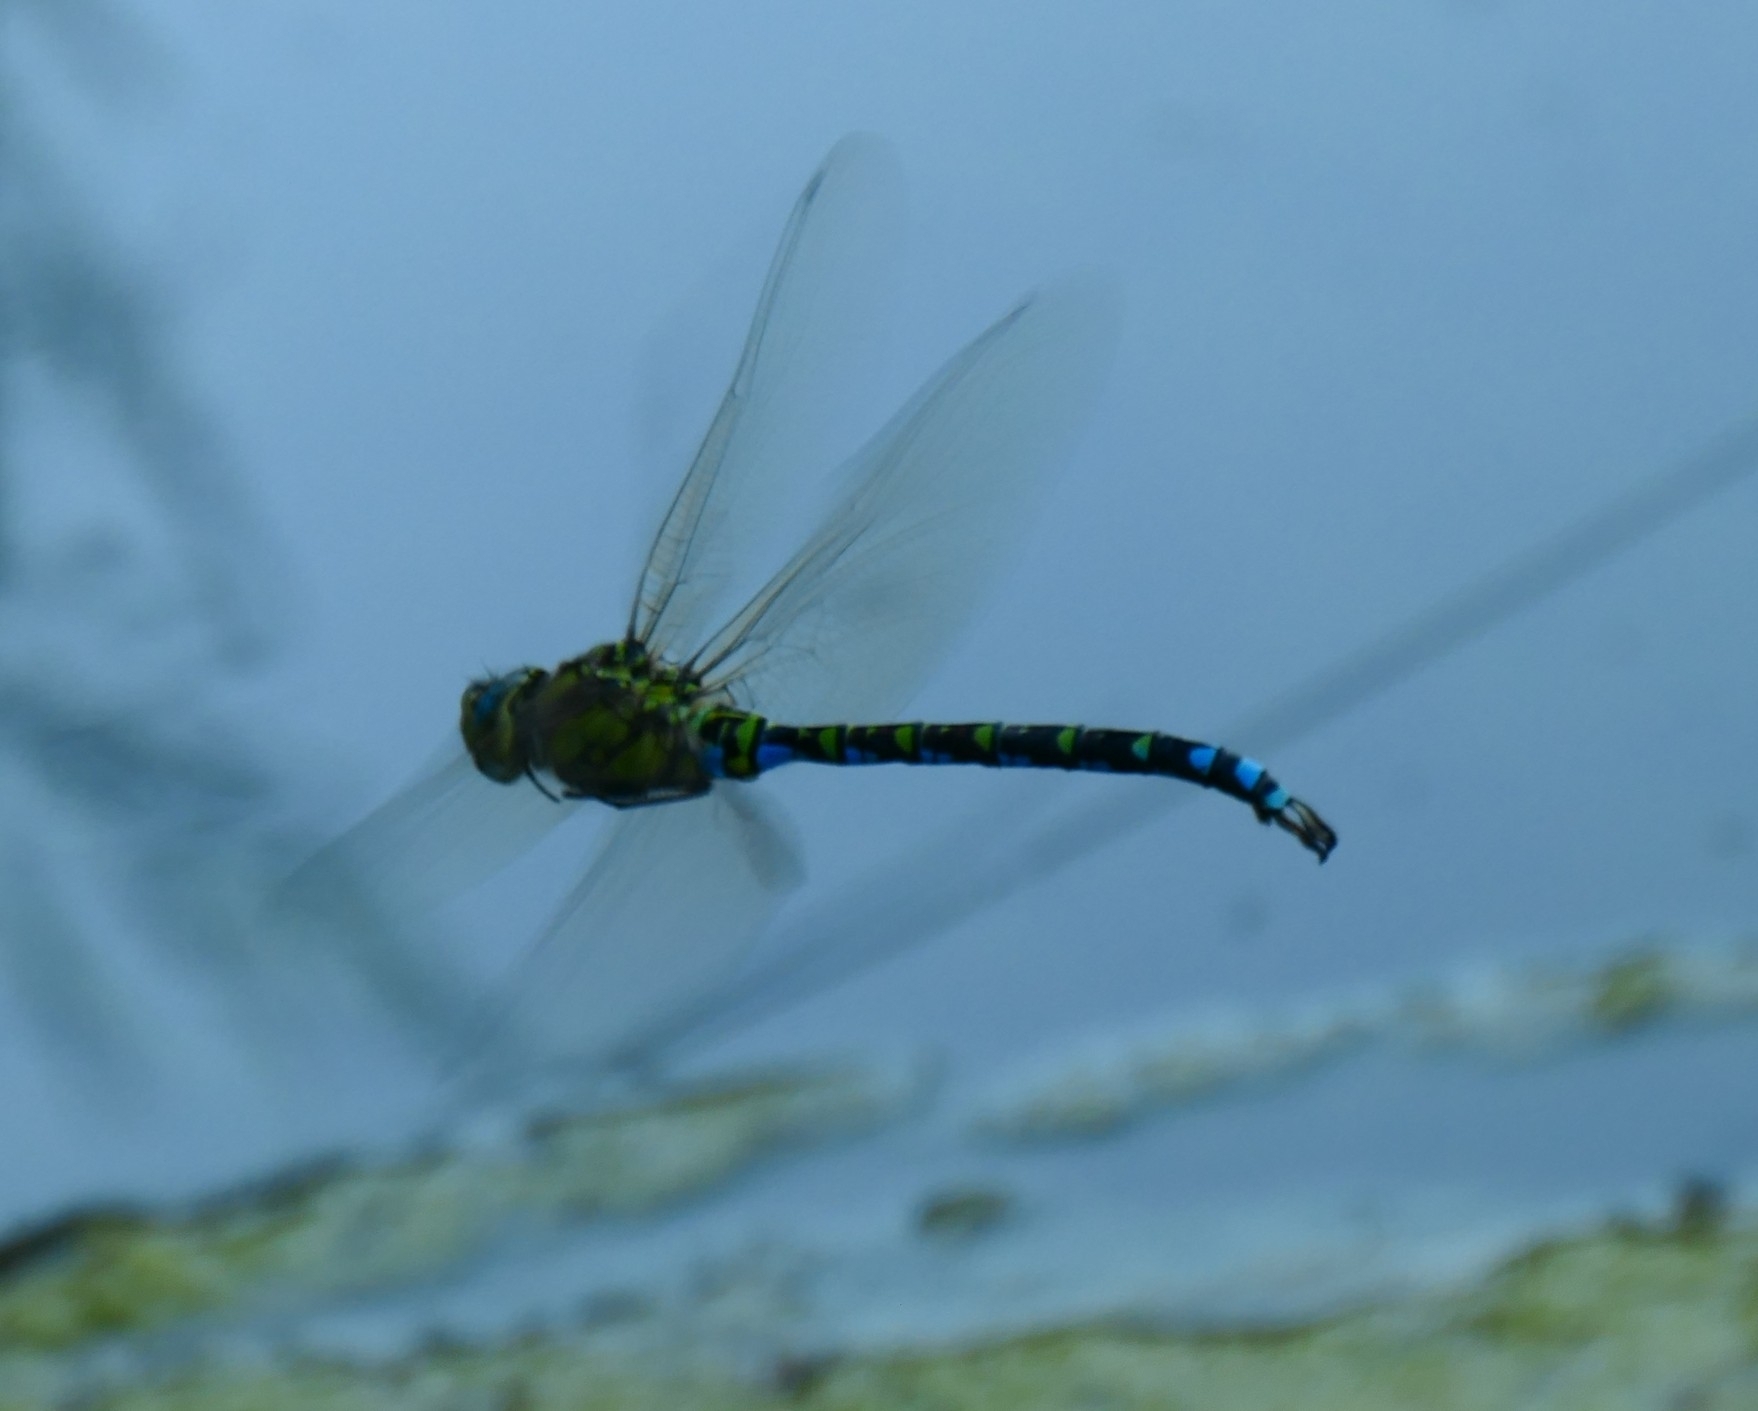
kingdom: Animalia
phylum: Arthropoda
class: Insecta
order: Odonata
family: Aeshnidae
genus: Aeshna
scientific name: Aeshna cyanea
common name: Southern hawker
